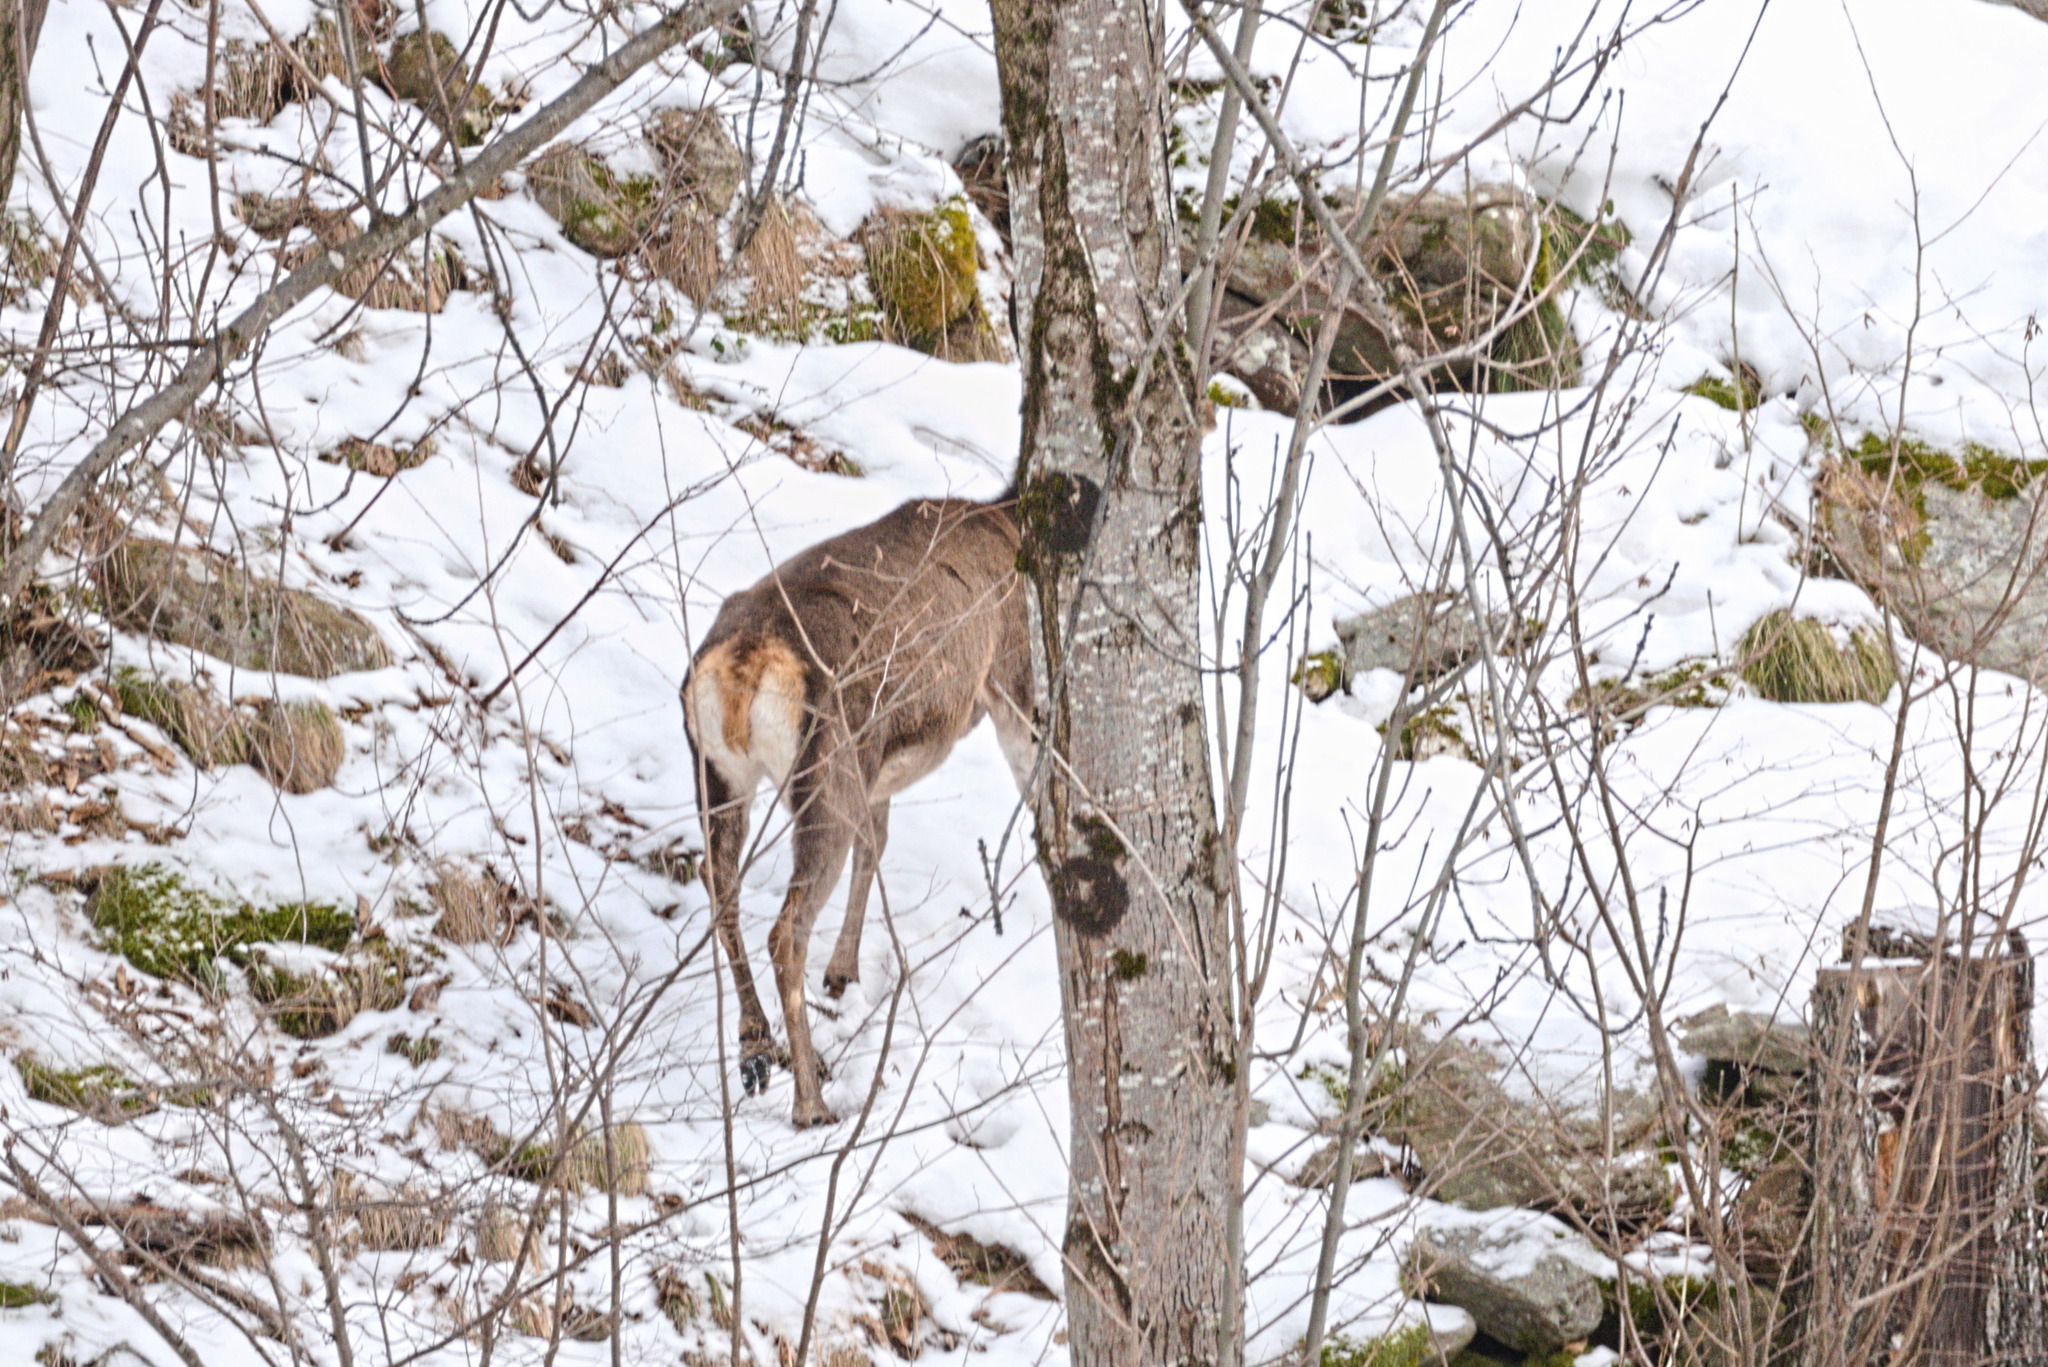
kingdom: Animalia
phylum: Chordata
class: Mammalia
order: Artiodactyla
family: Cervidae
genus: Cervus
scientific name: Cervus elaphus
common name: Red deer
